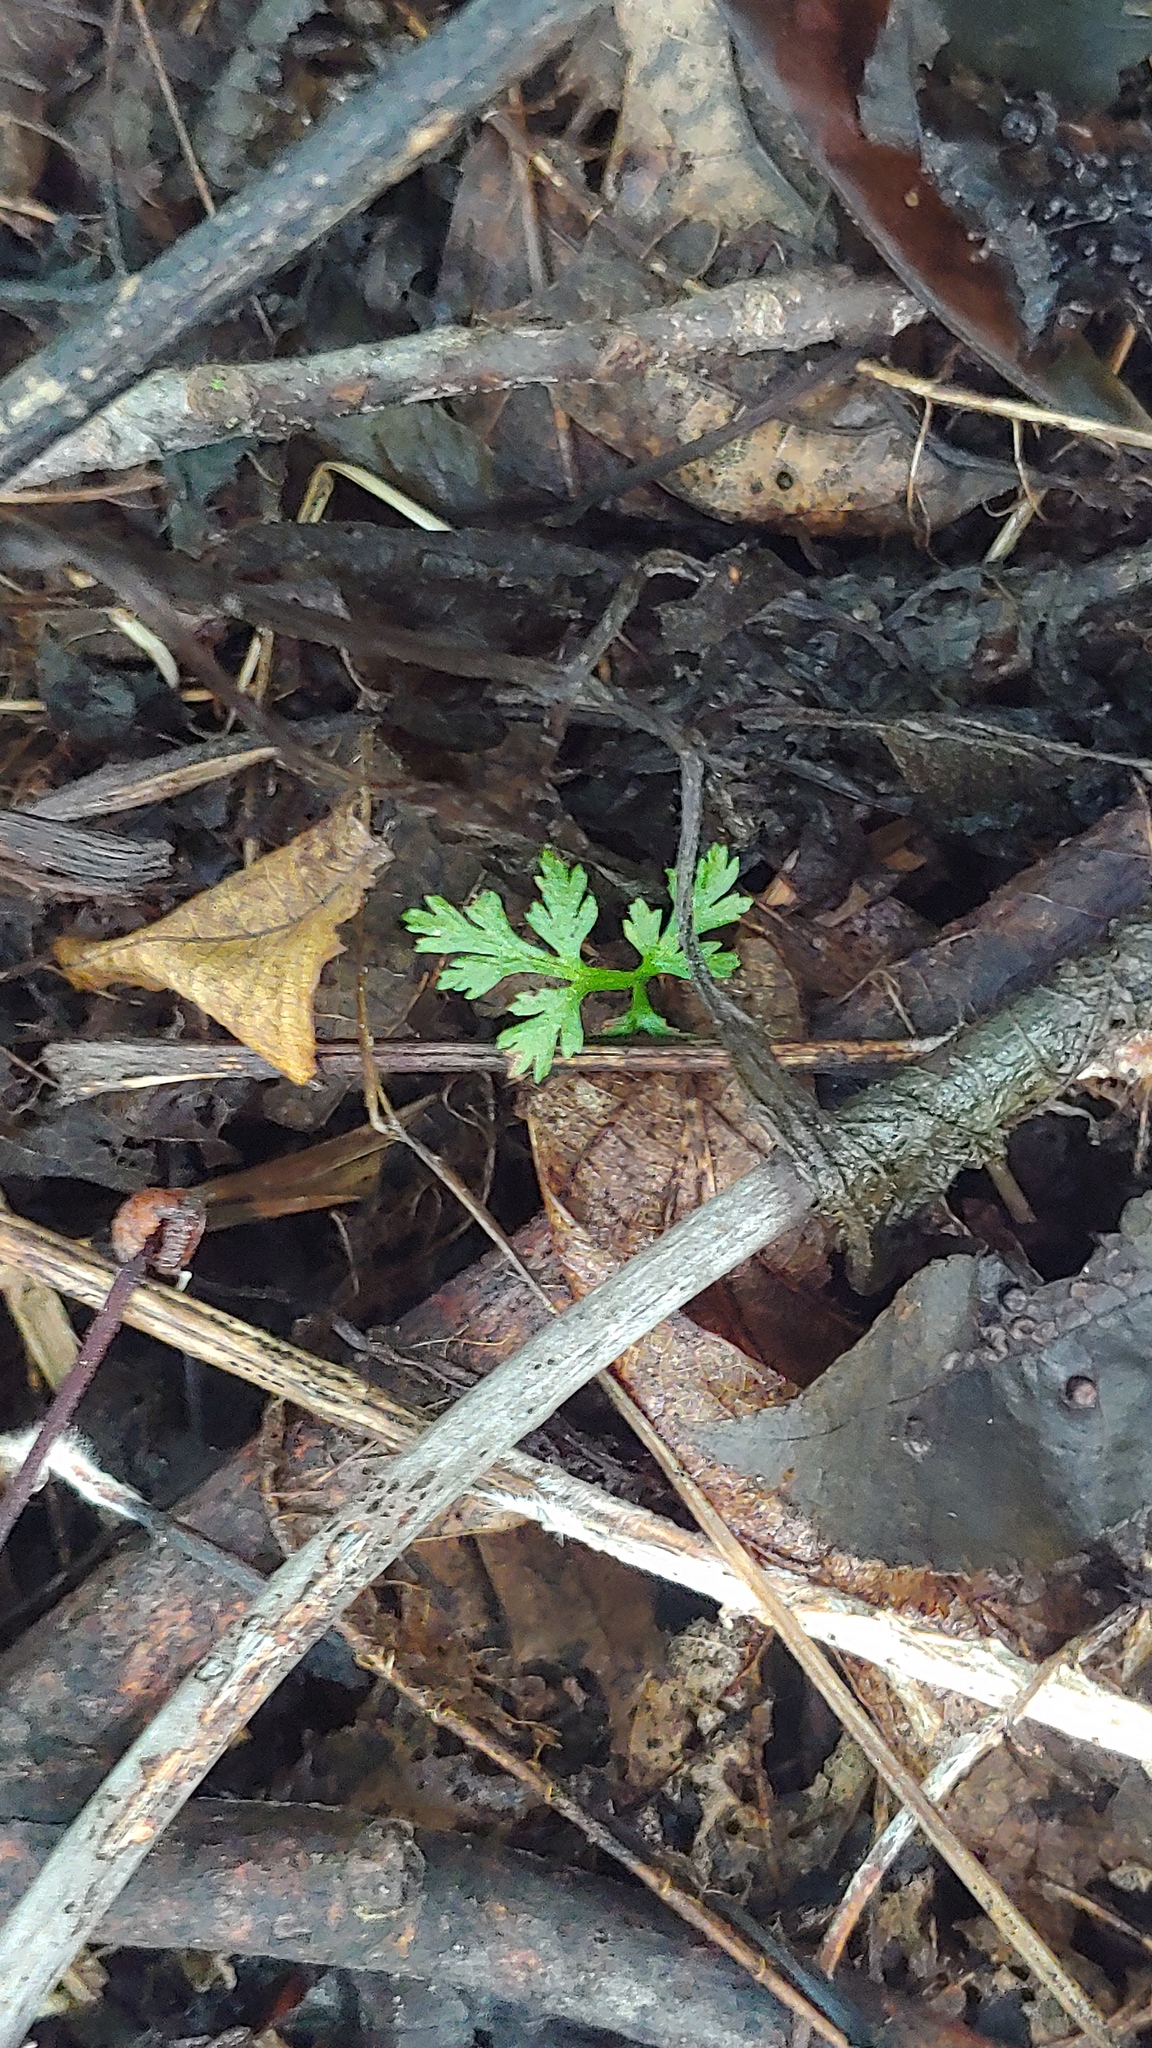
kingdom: Plantae
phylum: Tracheophyta
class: Polypodiopsida
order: Ophioglossales
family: Ophioglossaceae
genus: Botrypus
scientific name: Botrypus virginianus
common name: Common grapefern
